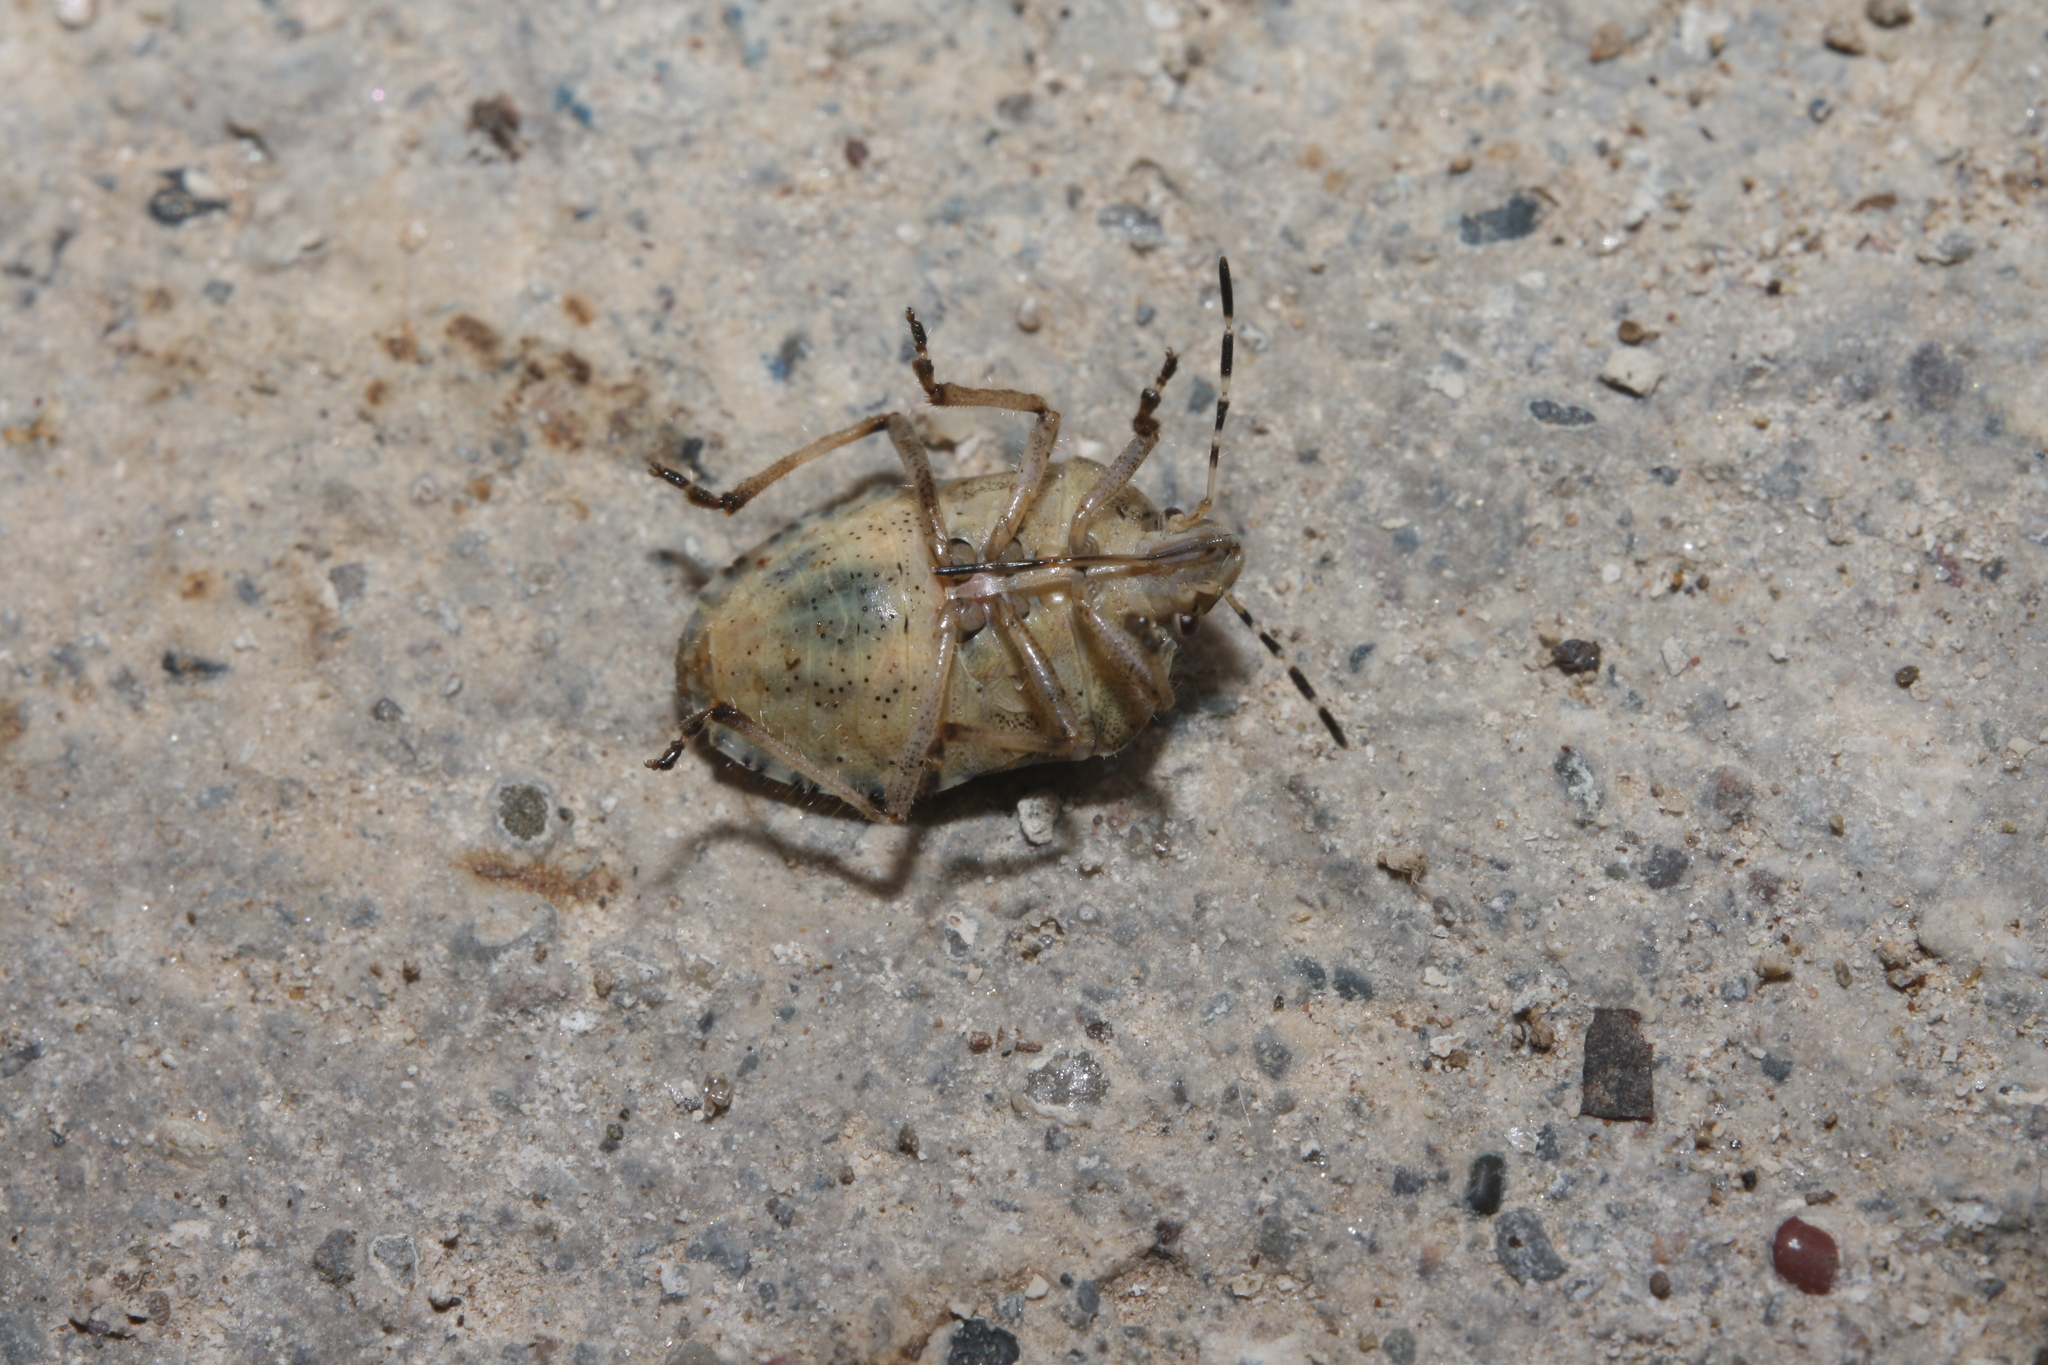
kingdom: Animalia
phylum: Arthropoda
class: Insecta
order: Hemiptera
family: Pentatomidae
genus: Dolycoris
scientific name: Dolycoris baccarum
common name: Sloe bug
